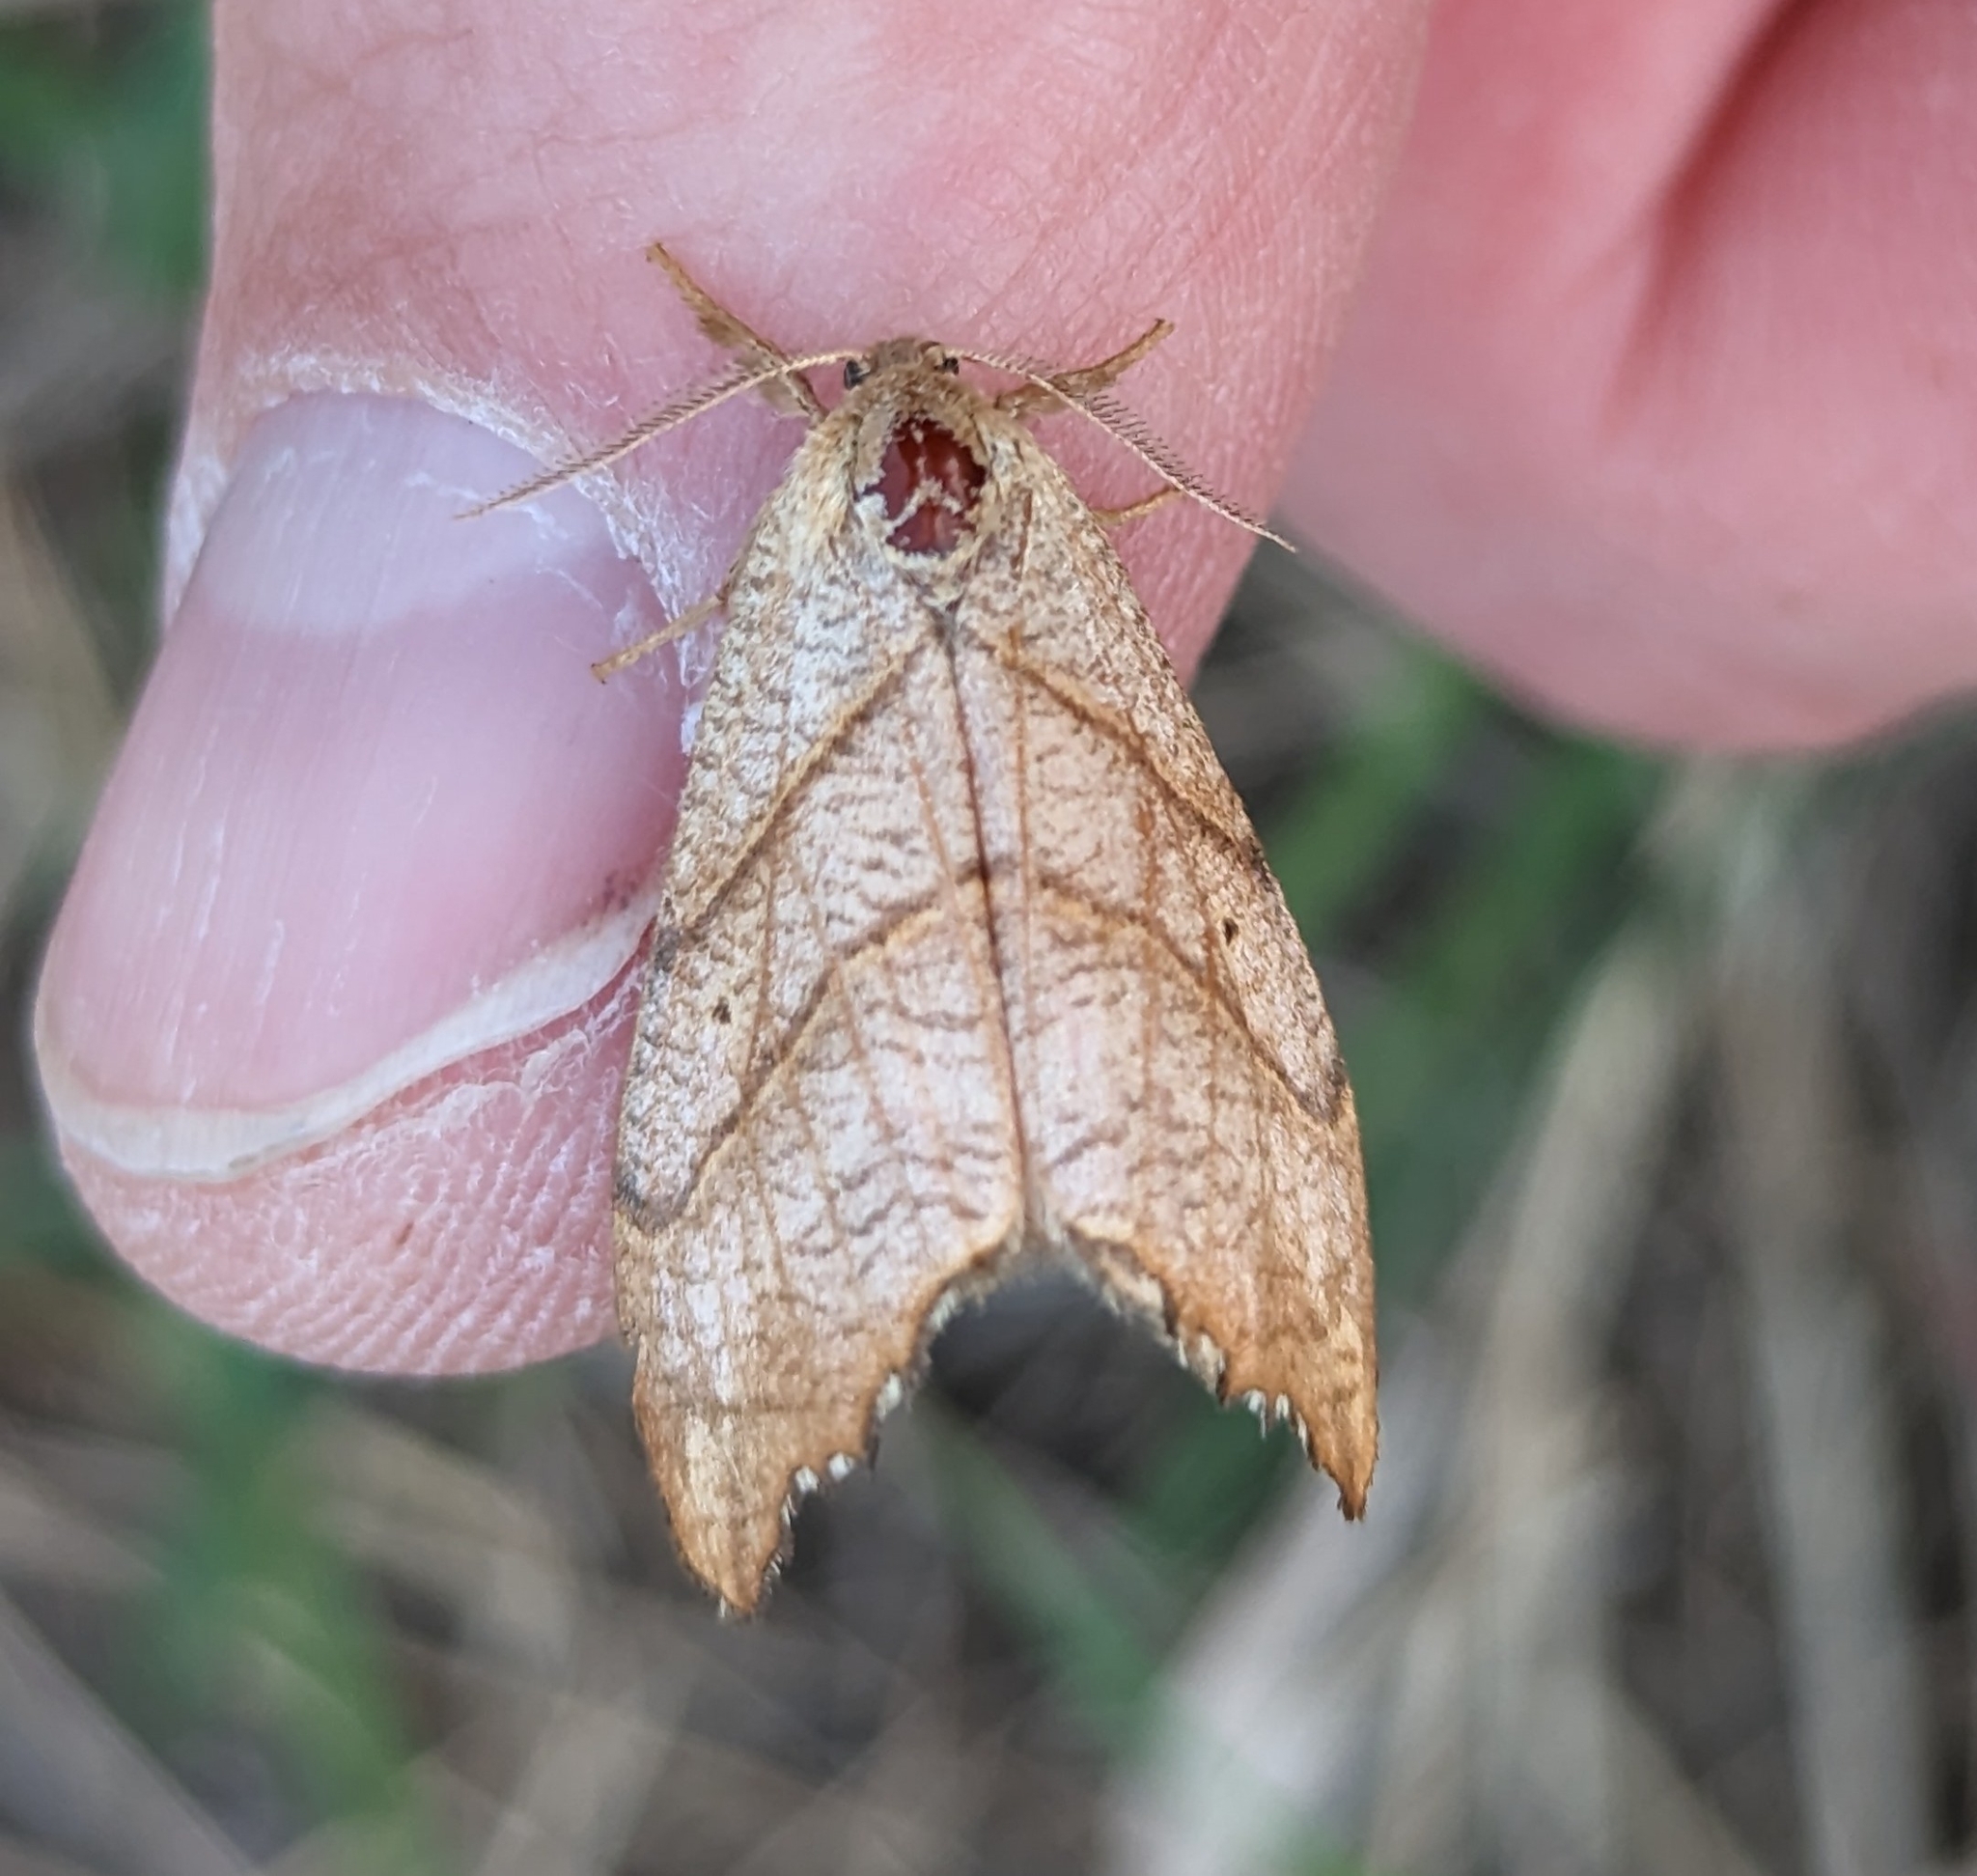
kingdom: Animalia
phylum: Arthropoda
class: Insecta
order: Lepidoptera
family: Drepanidae
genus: Falcaria
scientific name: Falcaria bilineata
